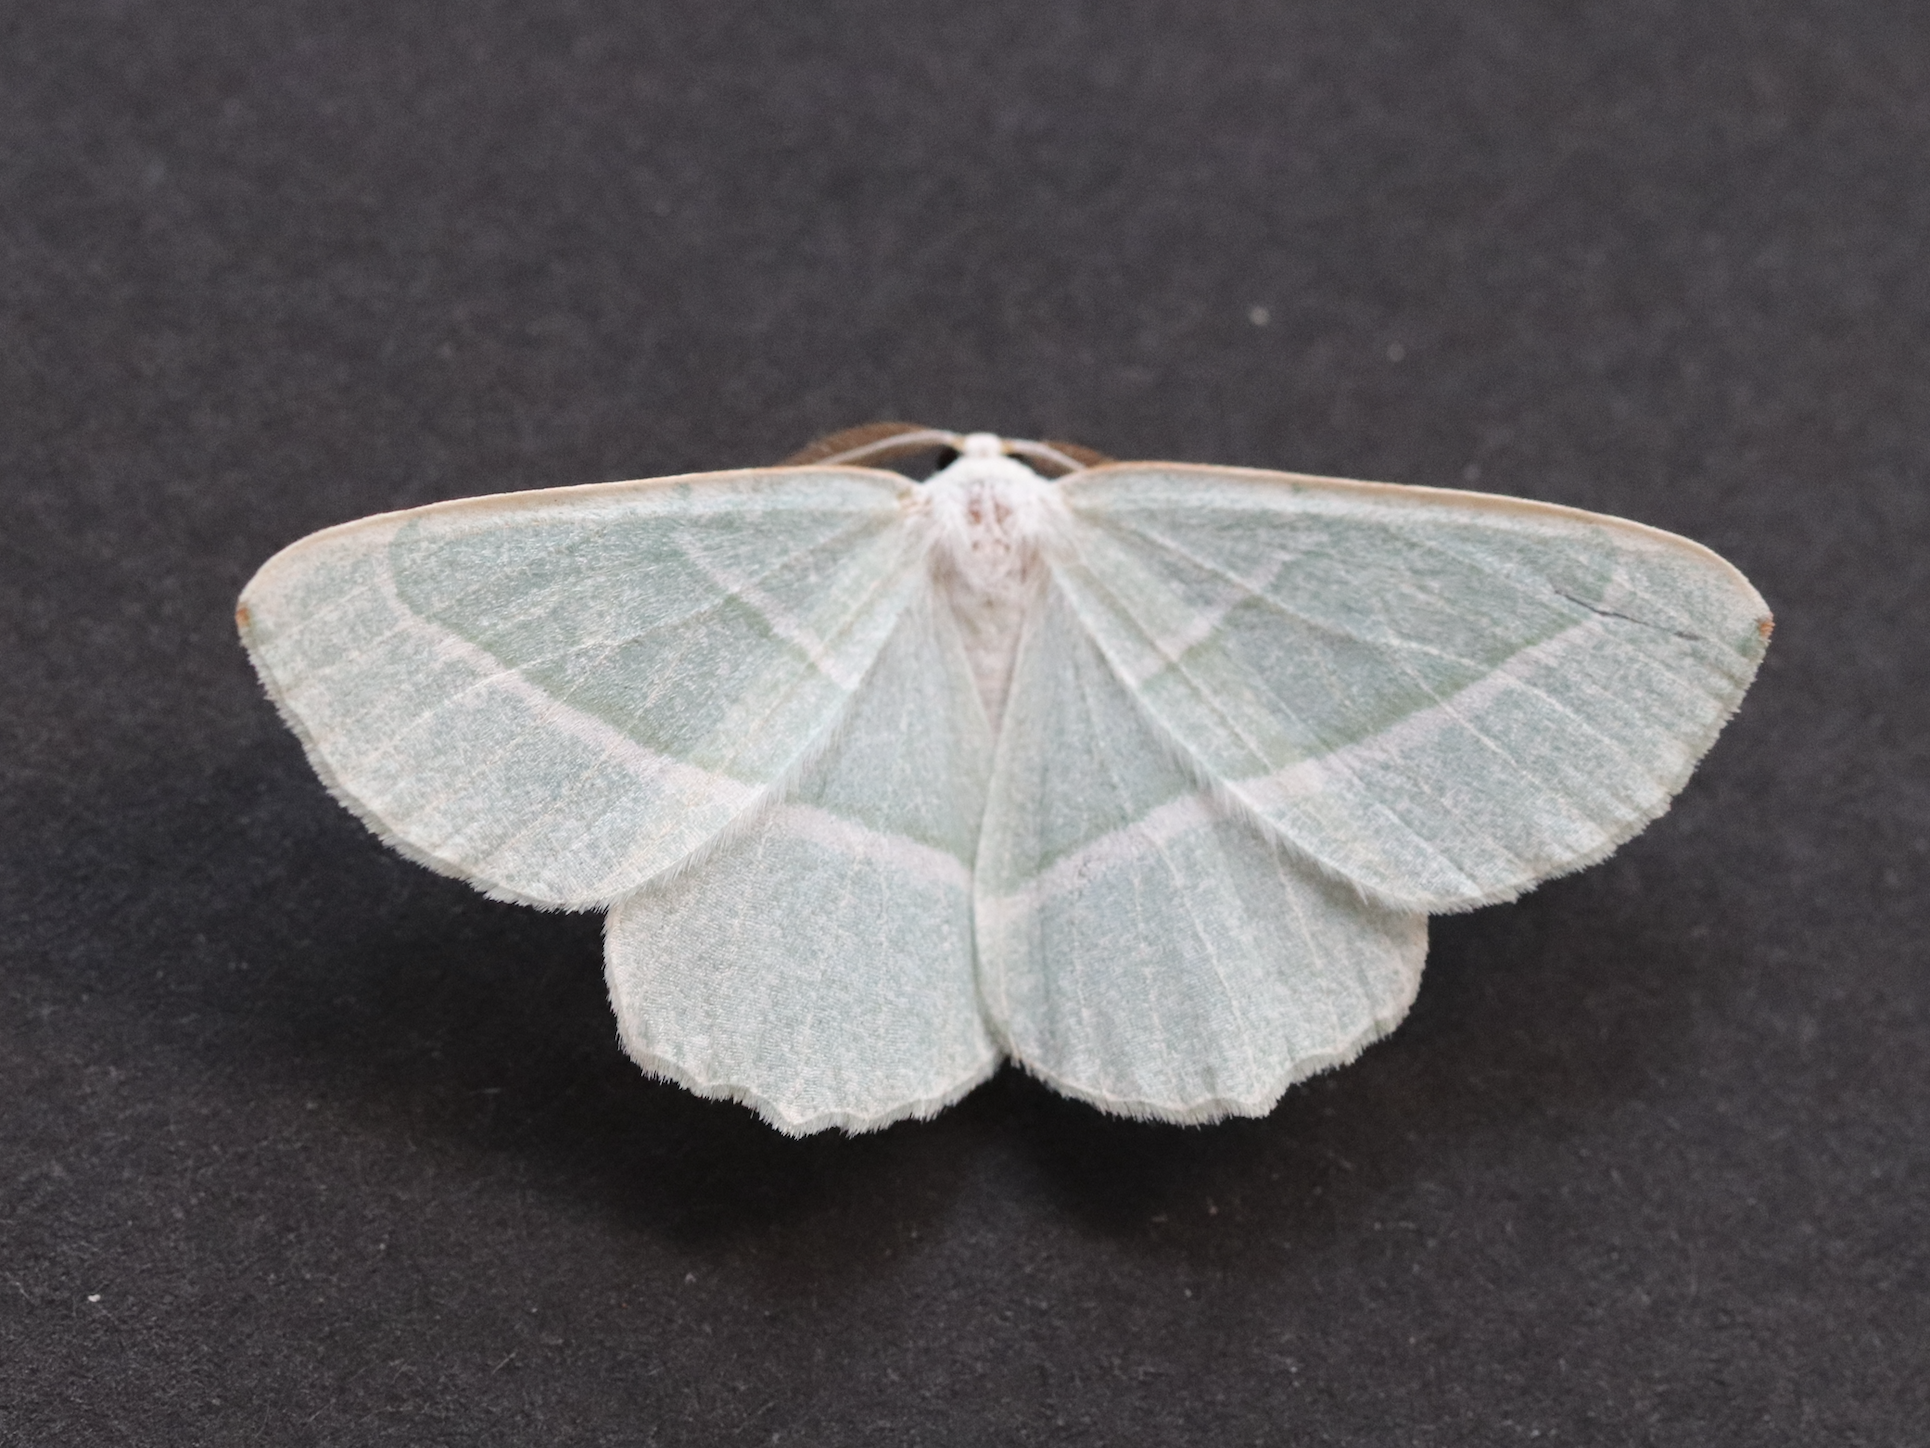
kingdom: Animalia
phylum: Arthropoda
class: Insecta
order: Lepidoptera
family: Geometridae
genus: Campaea
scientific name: Campaea margaritaria
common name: Light emerald
